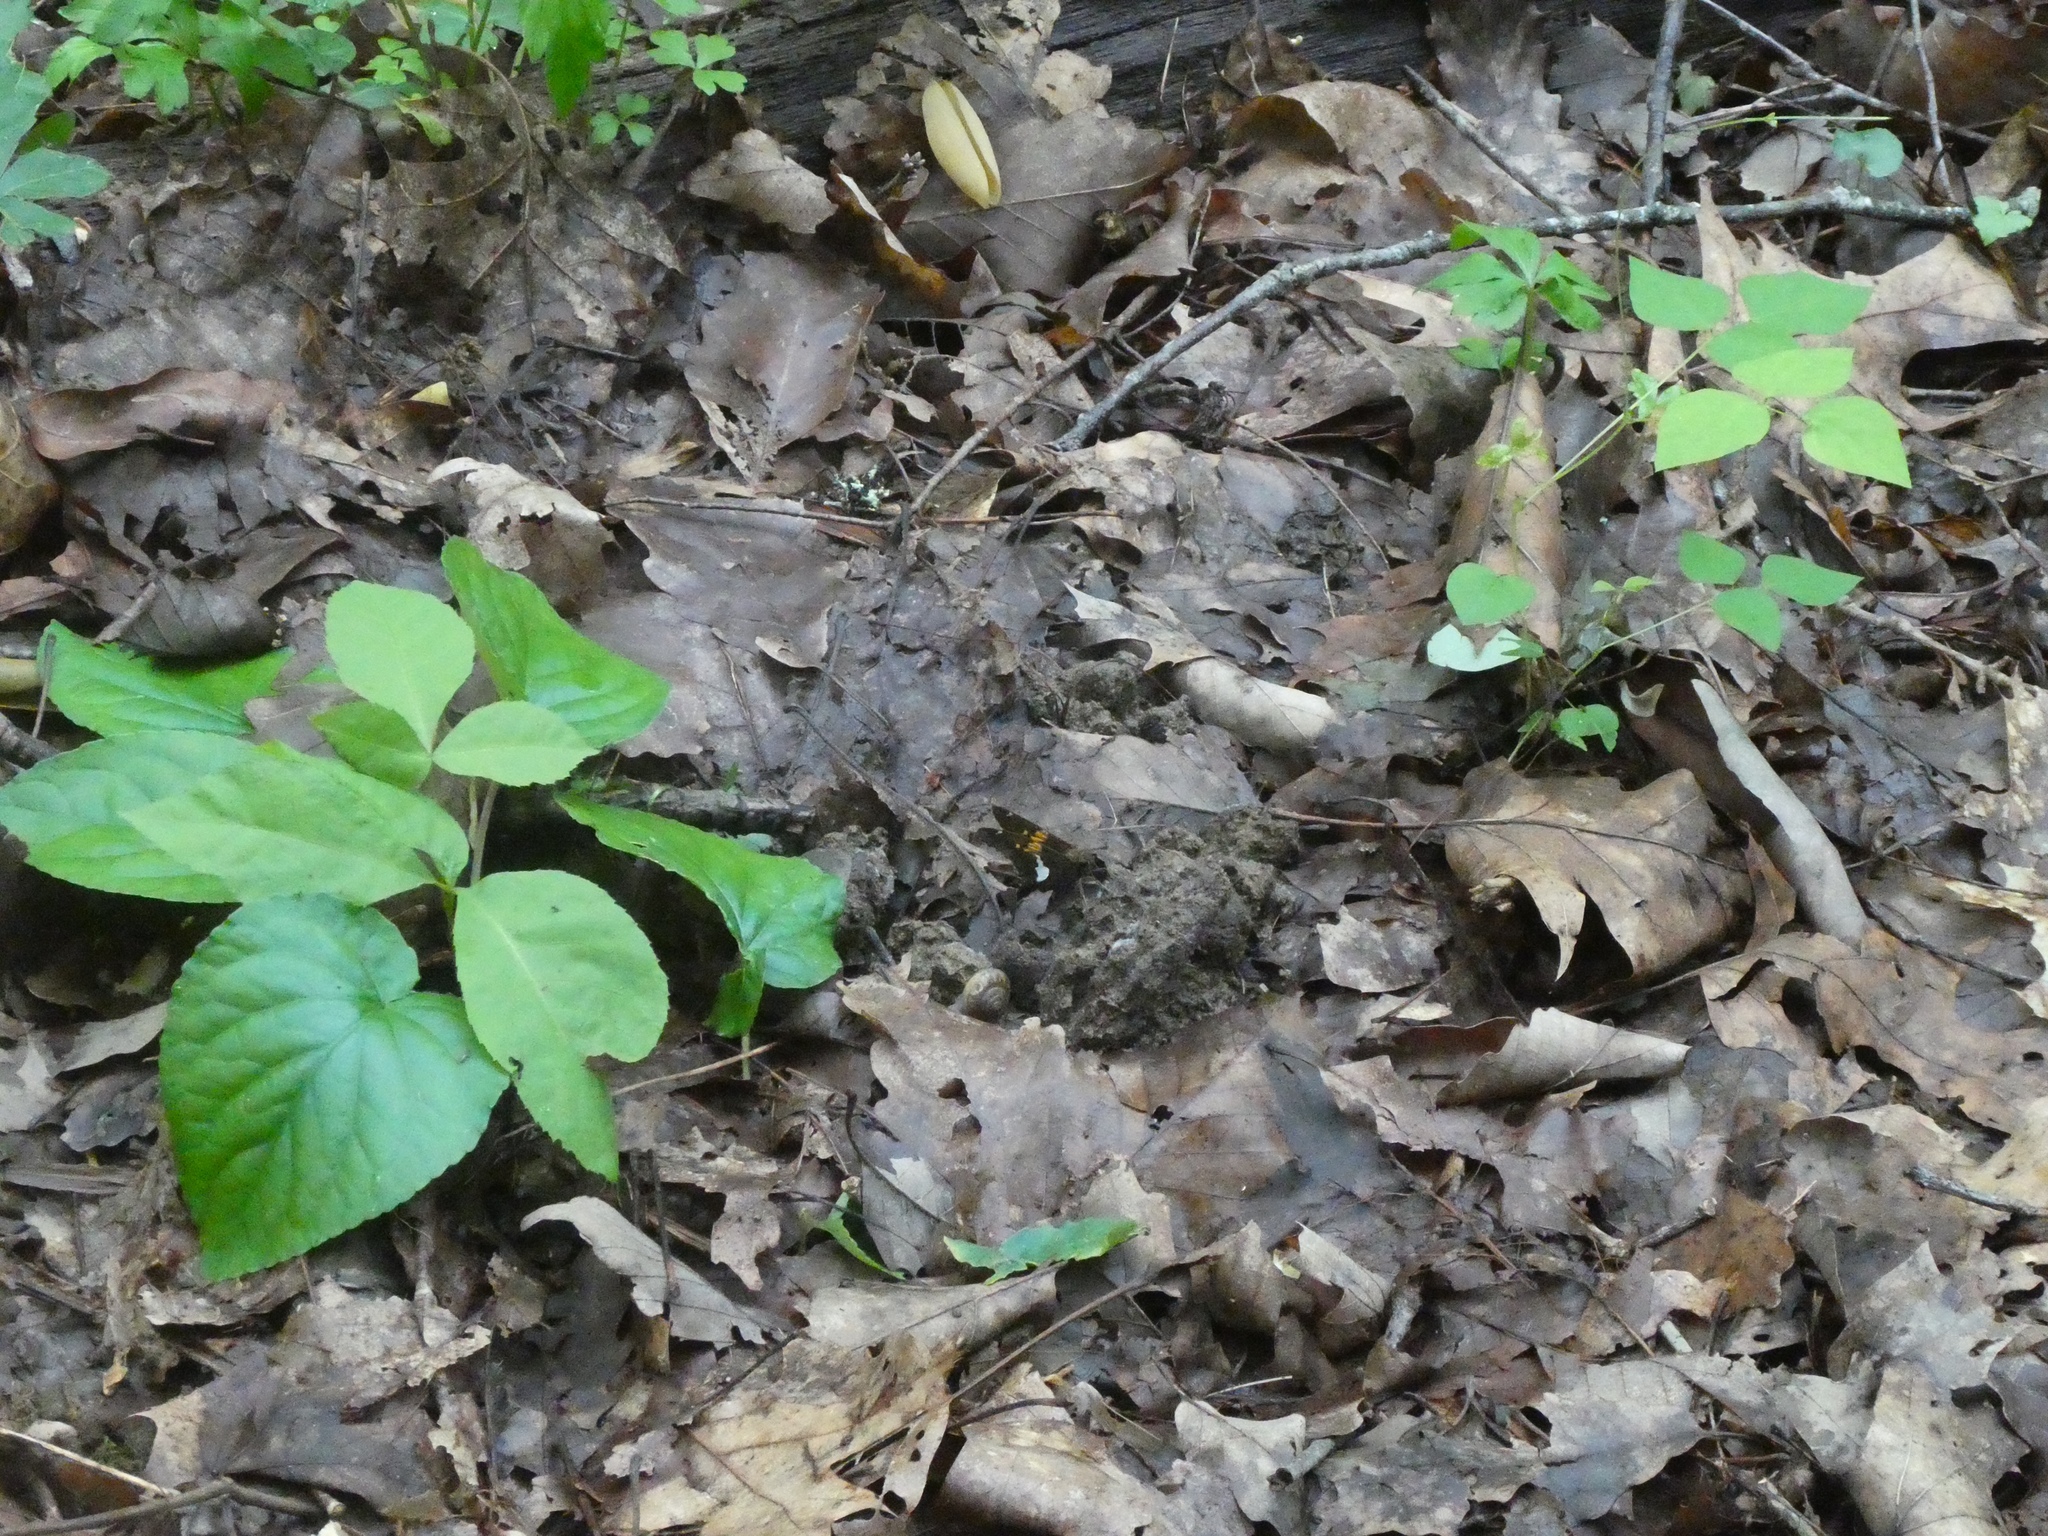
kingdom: Animalia
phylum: Arthropoda
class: Insecta
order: Lepidoptera
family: Hesperiidae
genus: Epargyreus
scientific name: Epargyreus clarus
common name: Silver-spotted skipper
